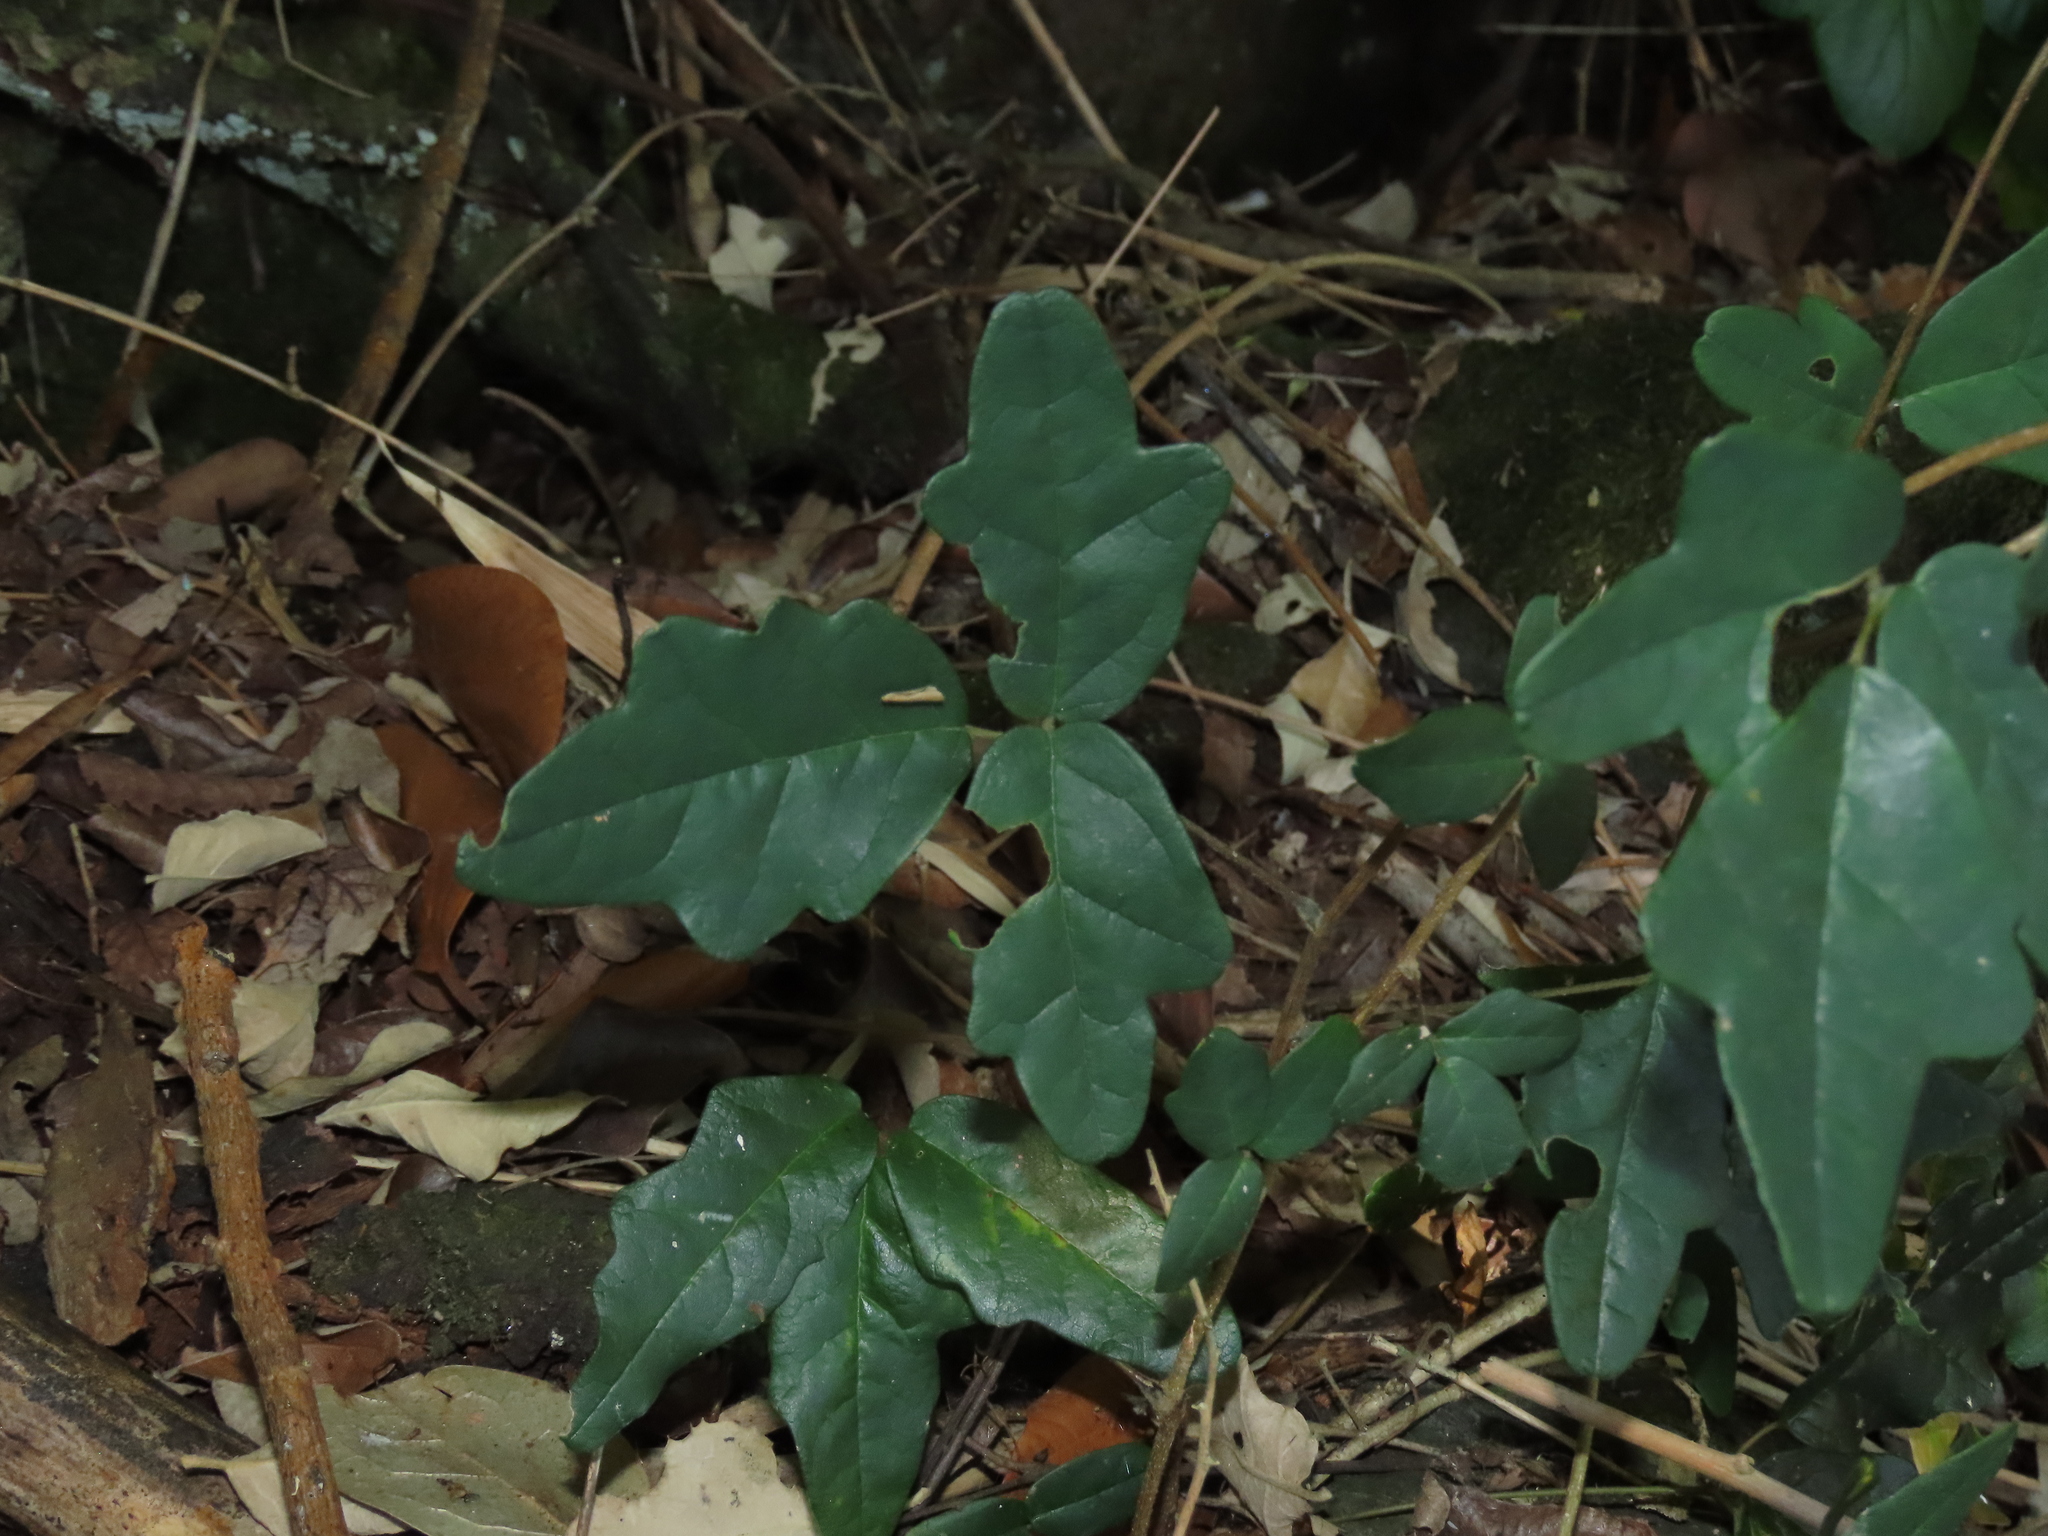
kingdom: Plantae
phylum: Tracheophyta
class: Magnoliopsida
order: Ranunculales
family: Lardizabalaceae
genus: Boquila
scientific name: Boquila trifoliolata
